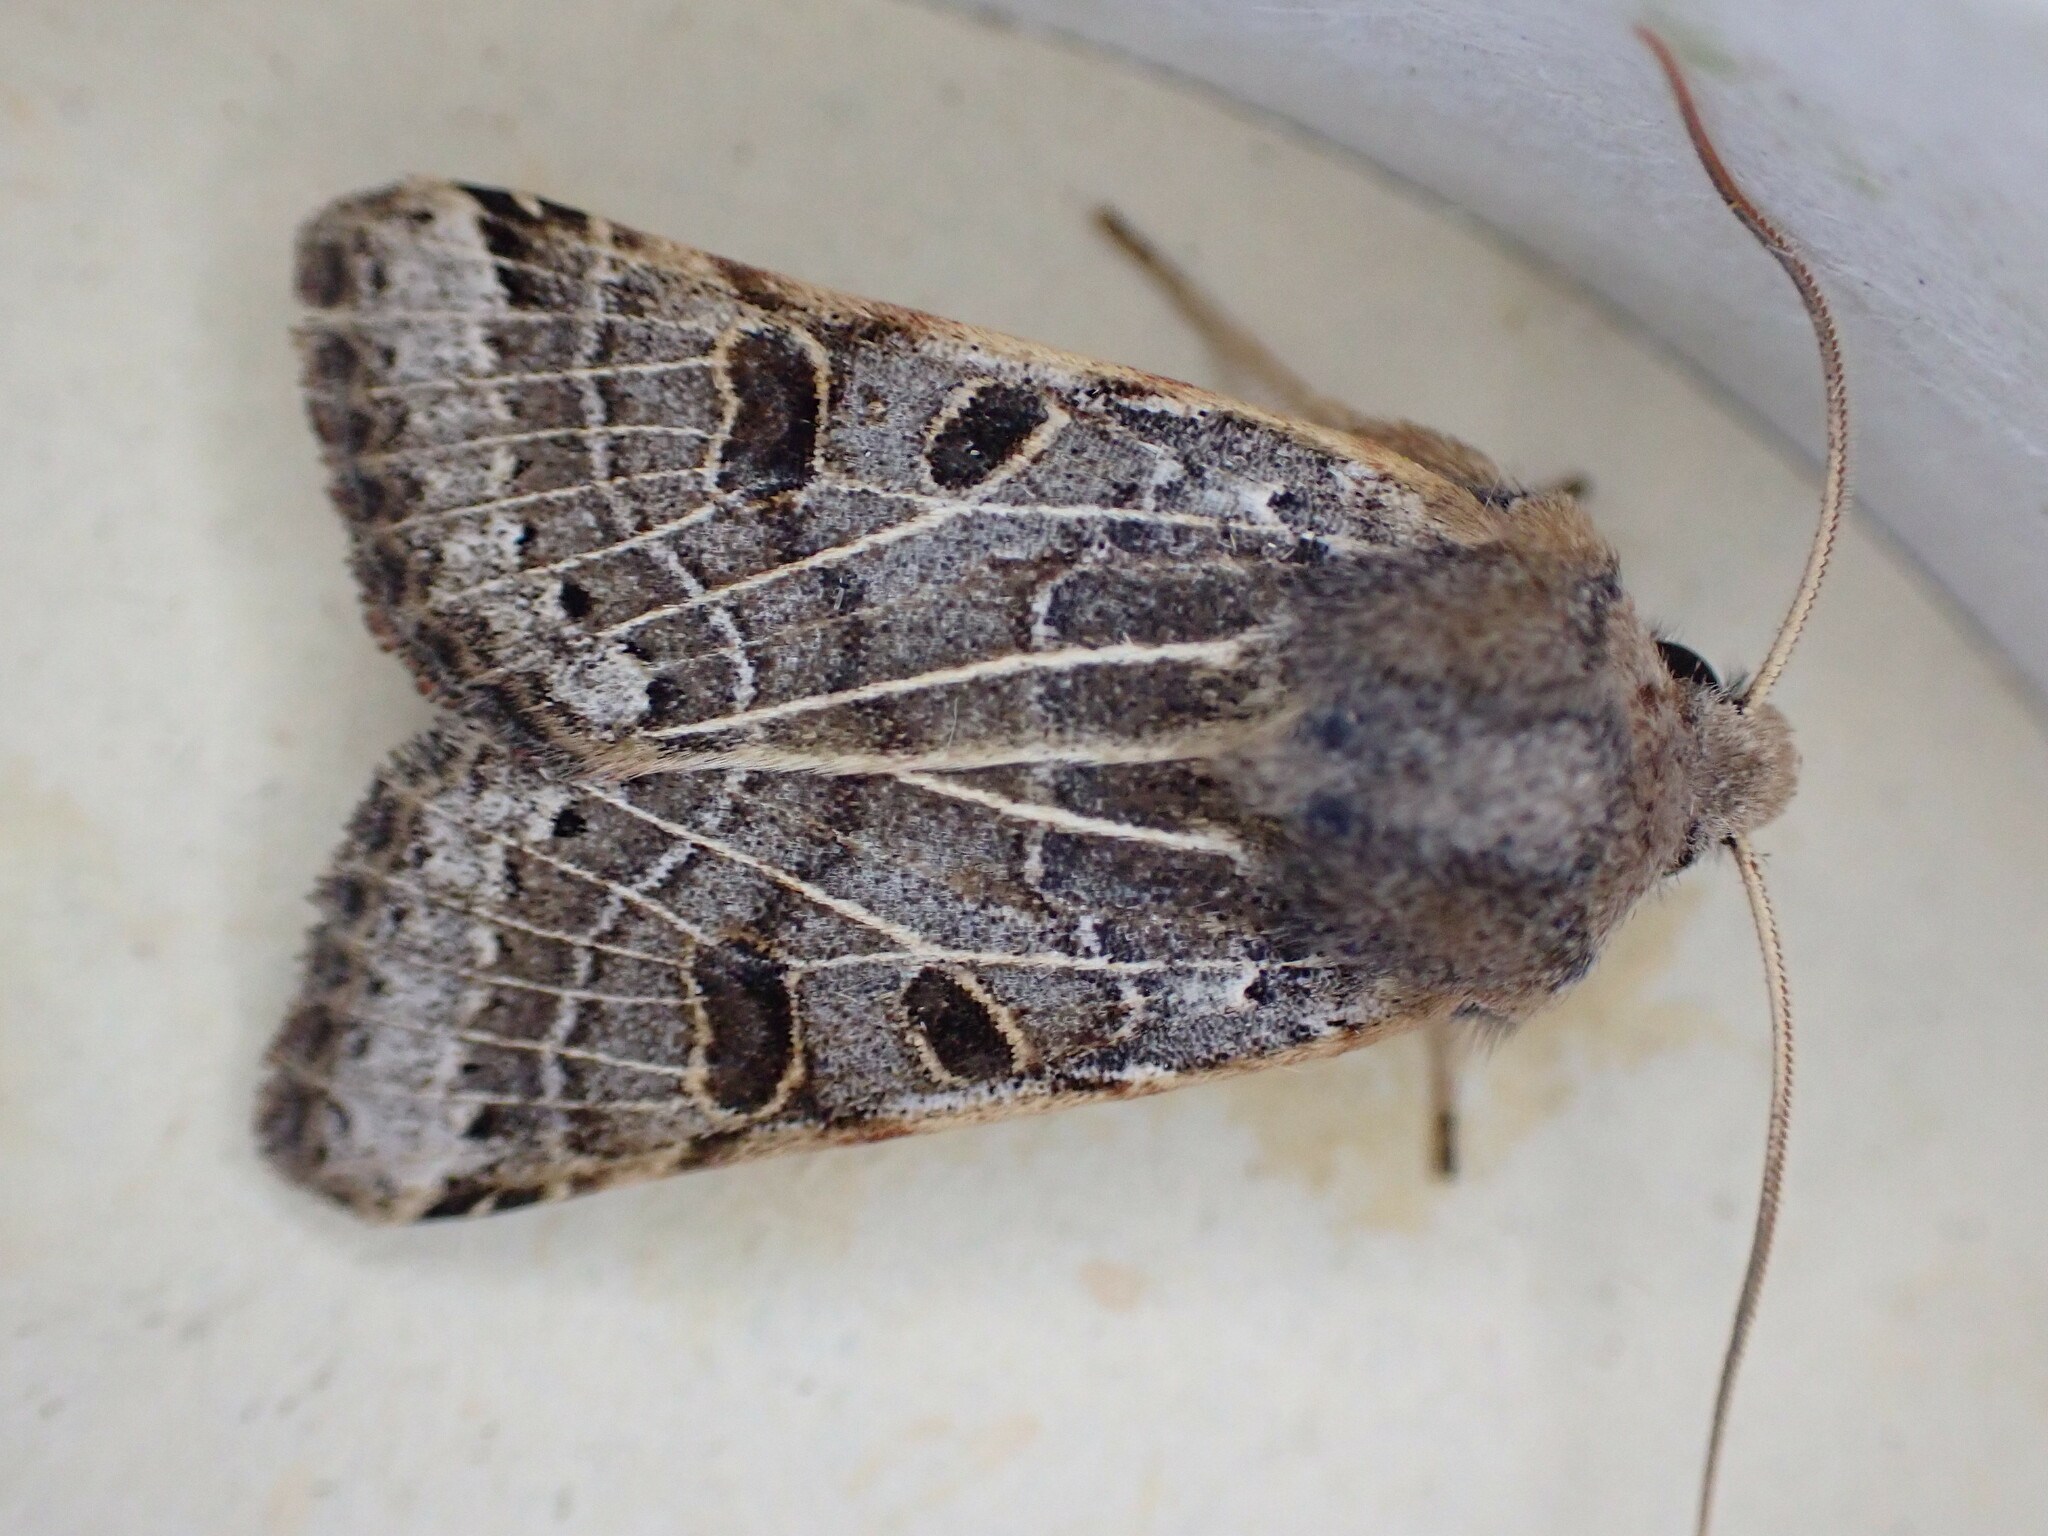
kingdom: Animalia
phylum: Arthropoda
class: Insecta
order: Lepidoptera
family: Noctuidae
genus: Agrochola
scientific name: Agrochola lunosa
